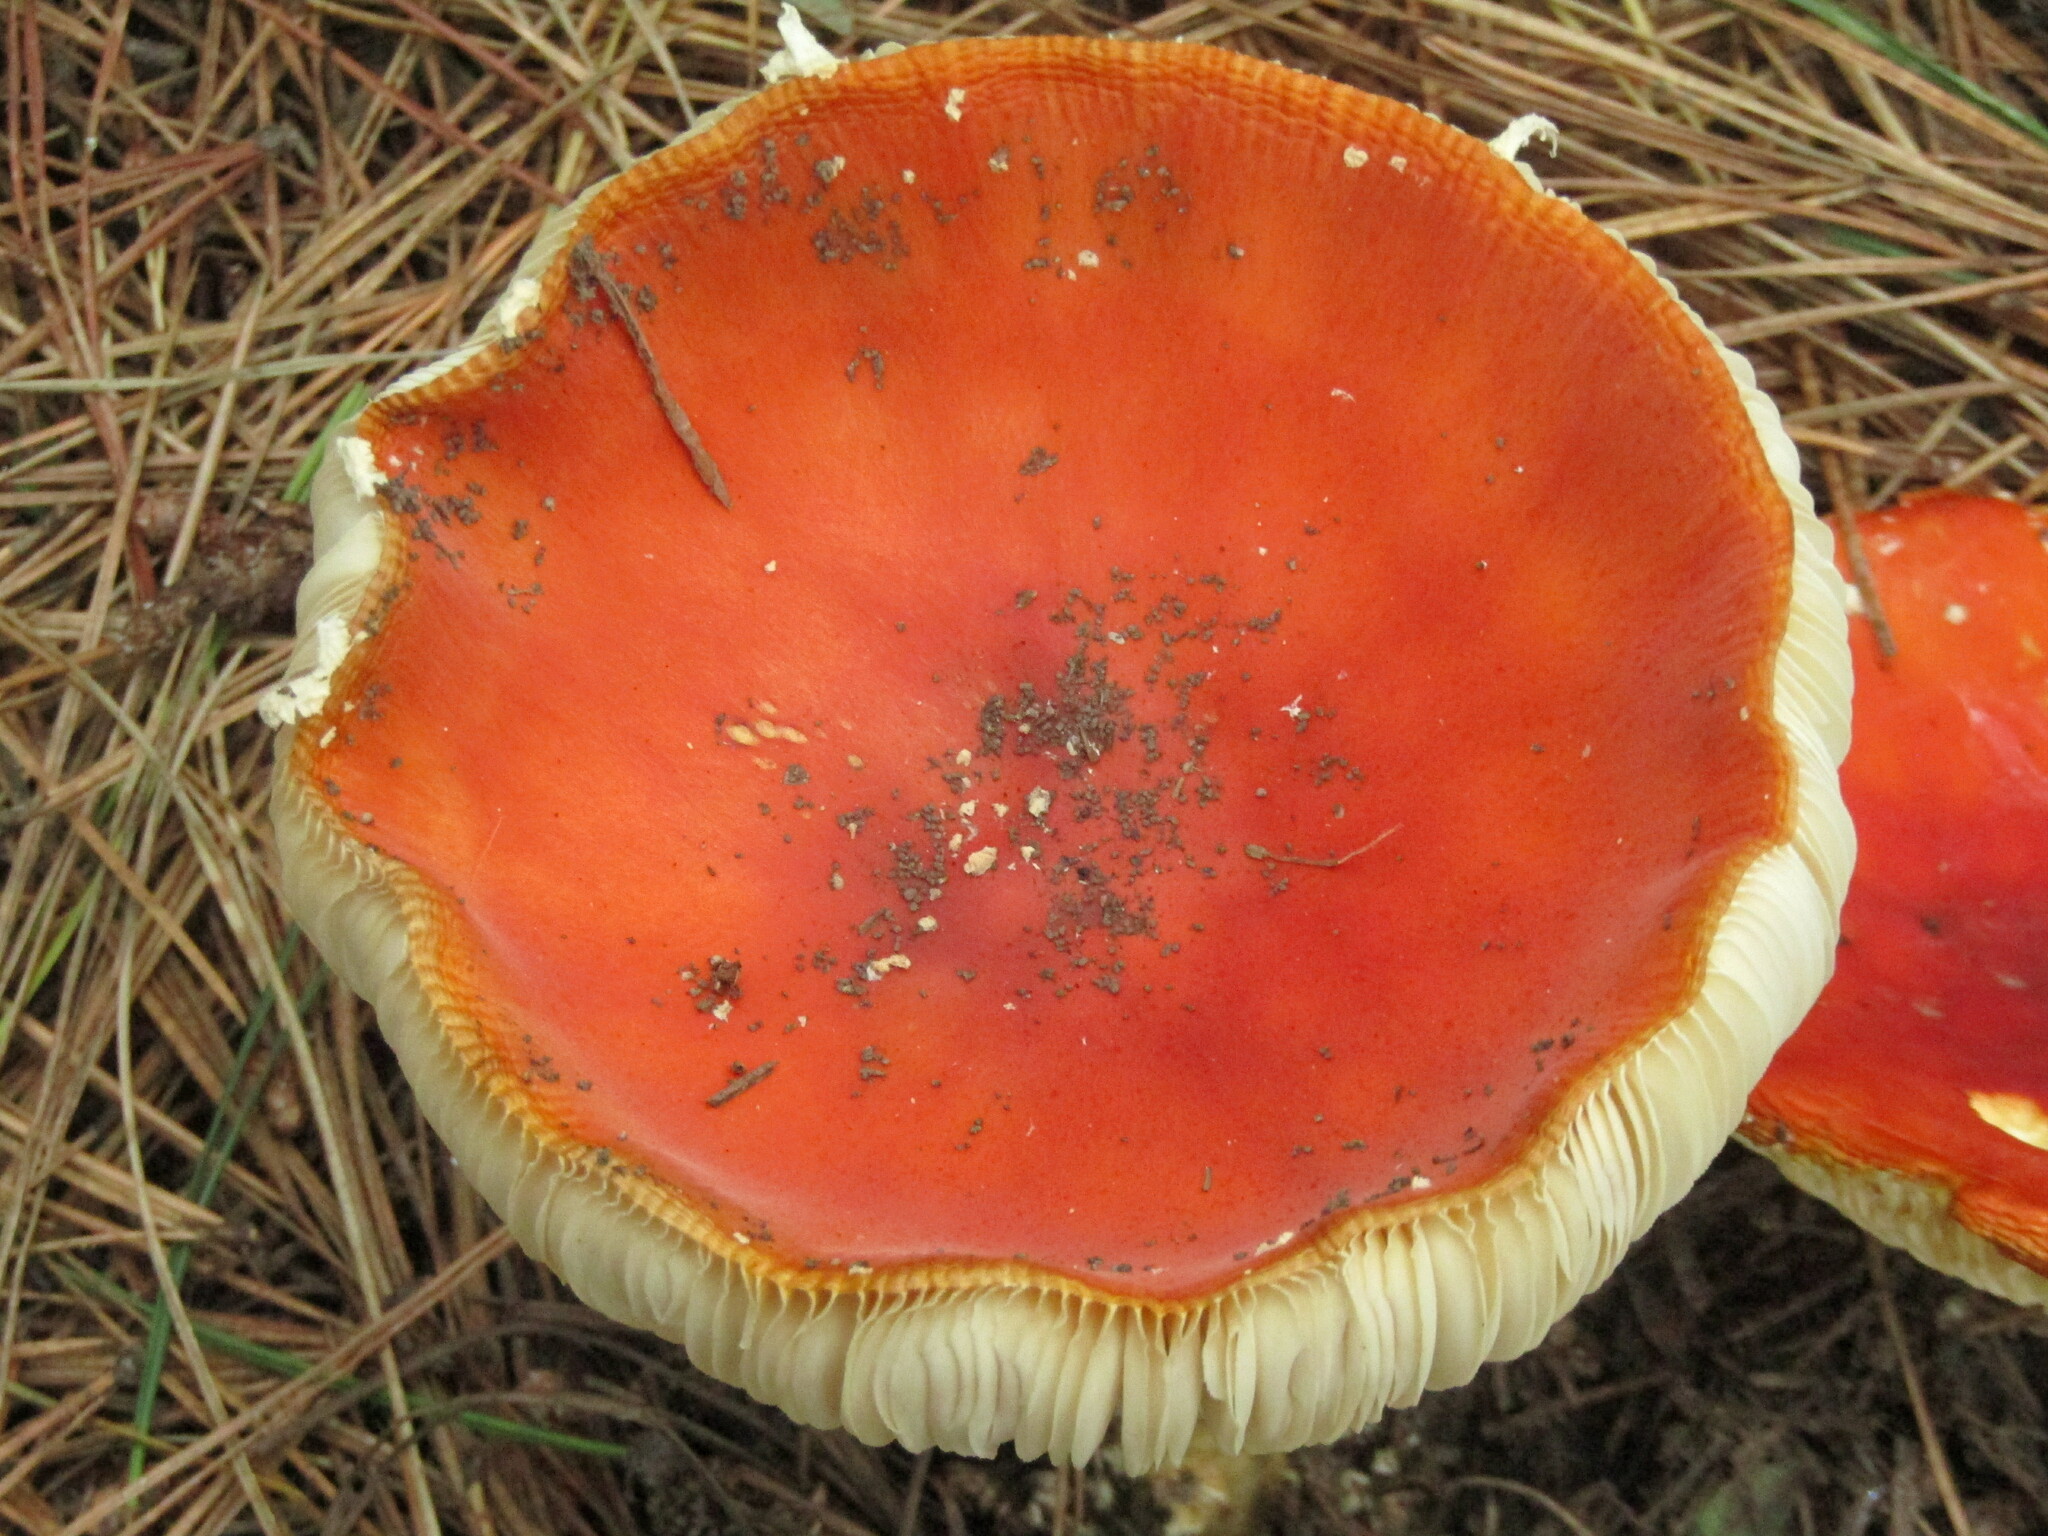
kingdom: Fungi
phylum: Basidiomycota
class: Agaricomycetes
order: Agaricales
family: Amanitaceae
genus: Amanita
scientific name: Amanita muscaria
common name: Fly agaric
